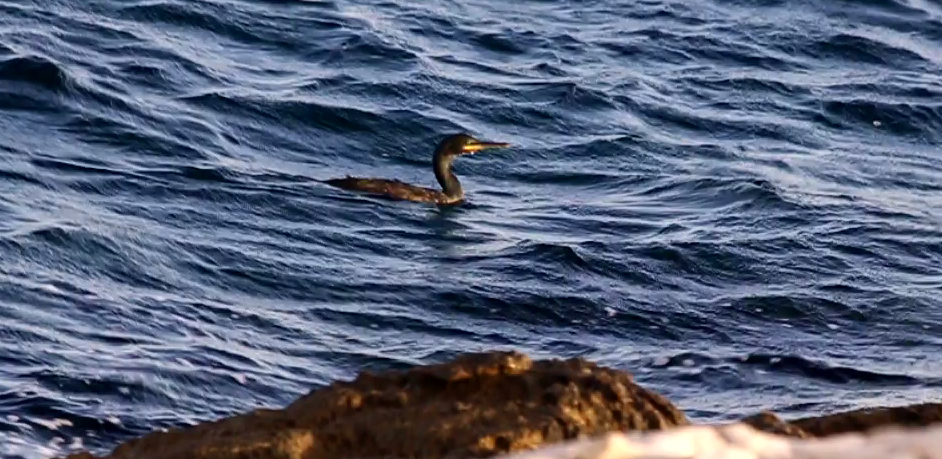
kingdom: Animalia
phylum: Chordata
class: Aves
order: Suliformes
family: Phalacrocoracidae
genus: Phalacrocorax
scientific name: Phalacrocorax aristotelis
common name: European shag
